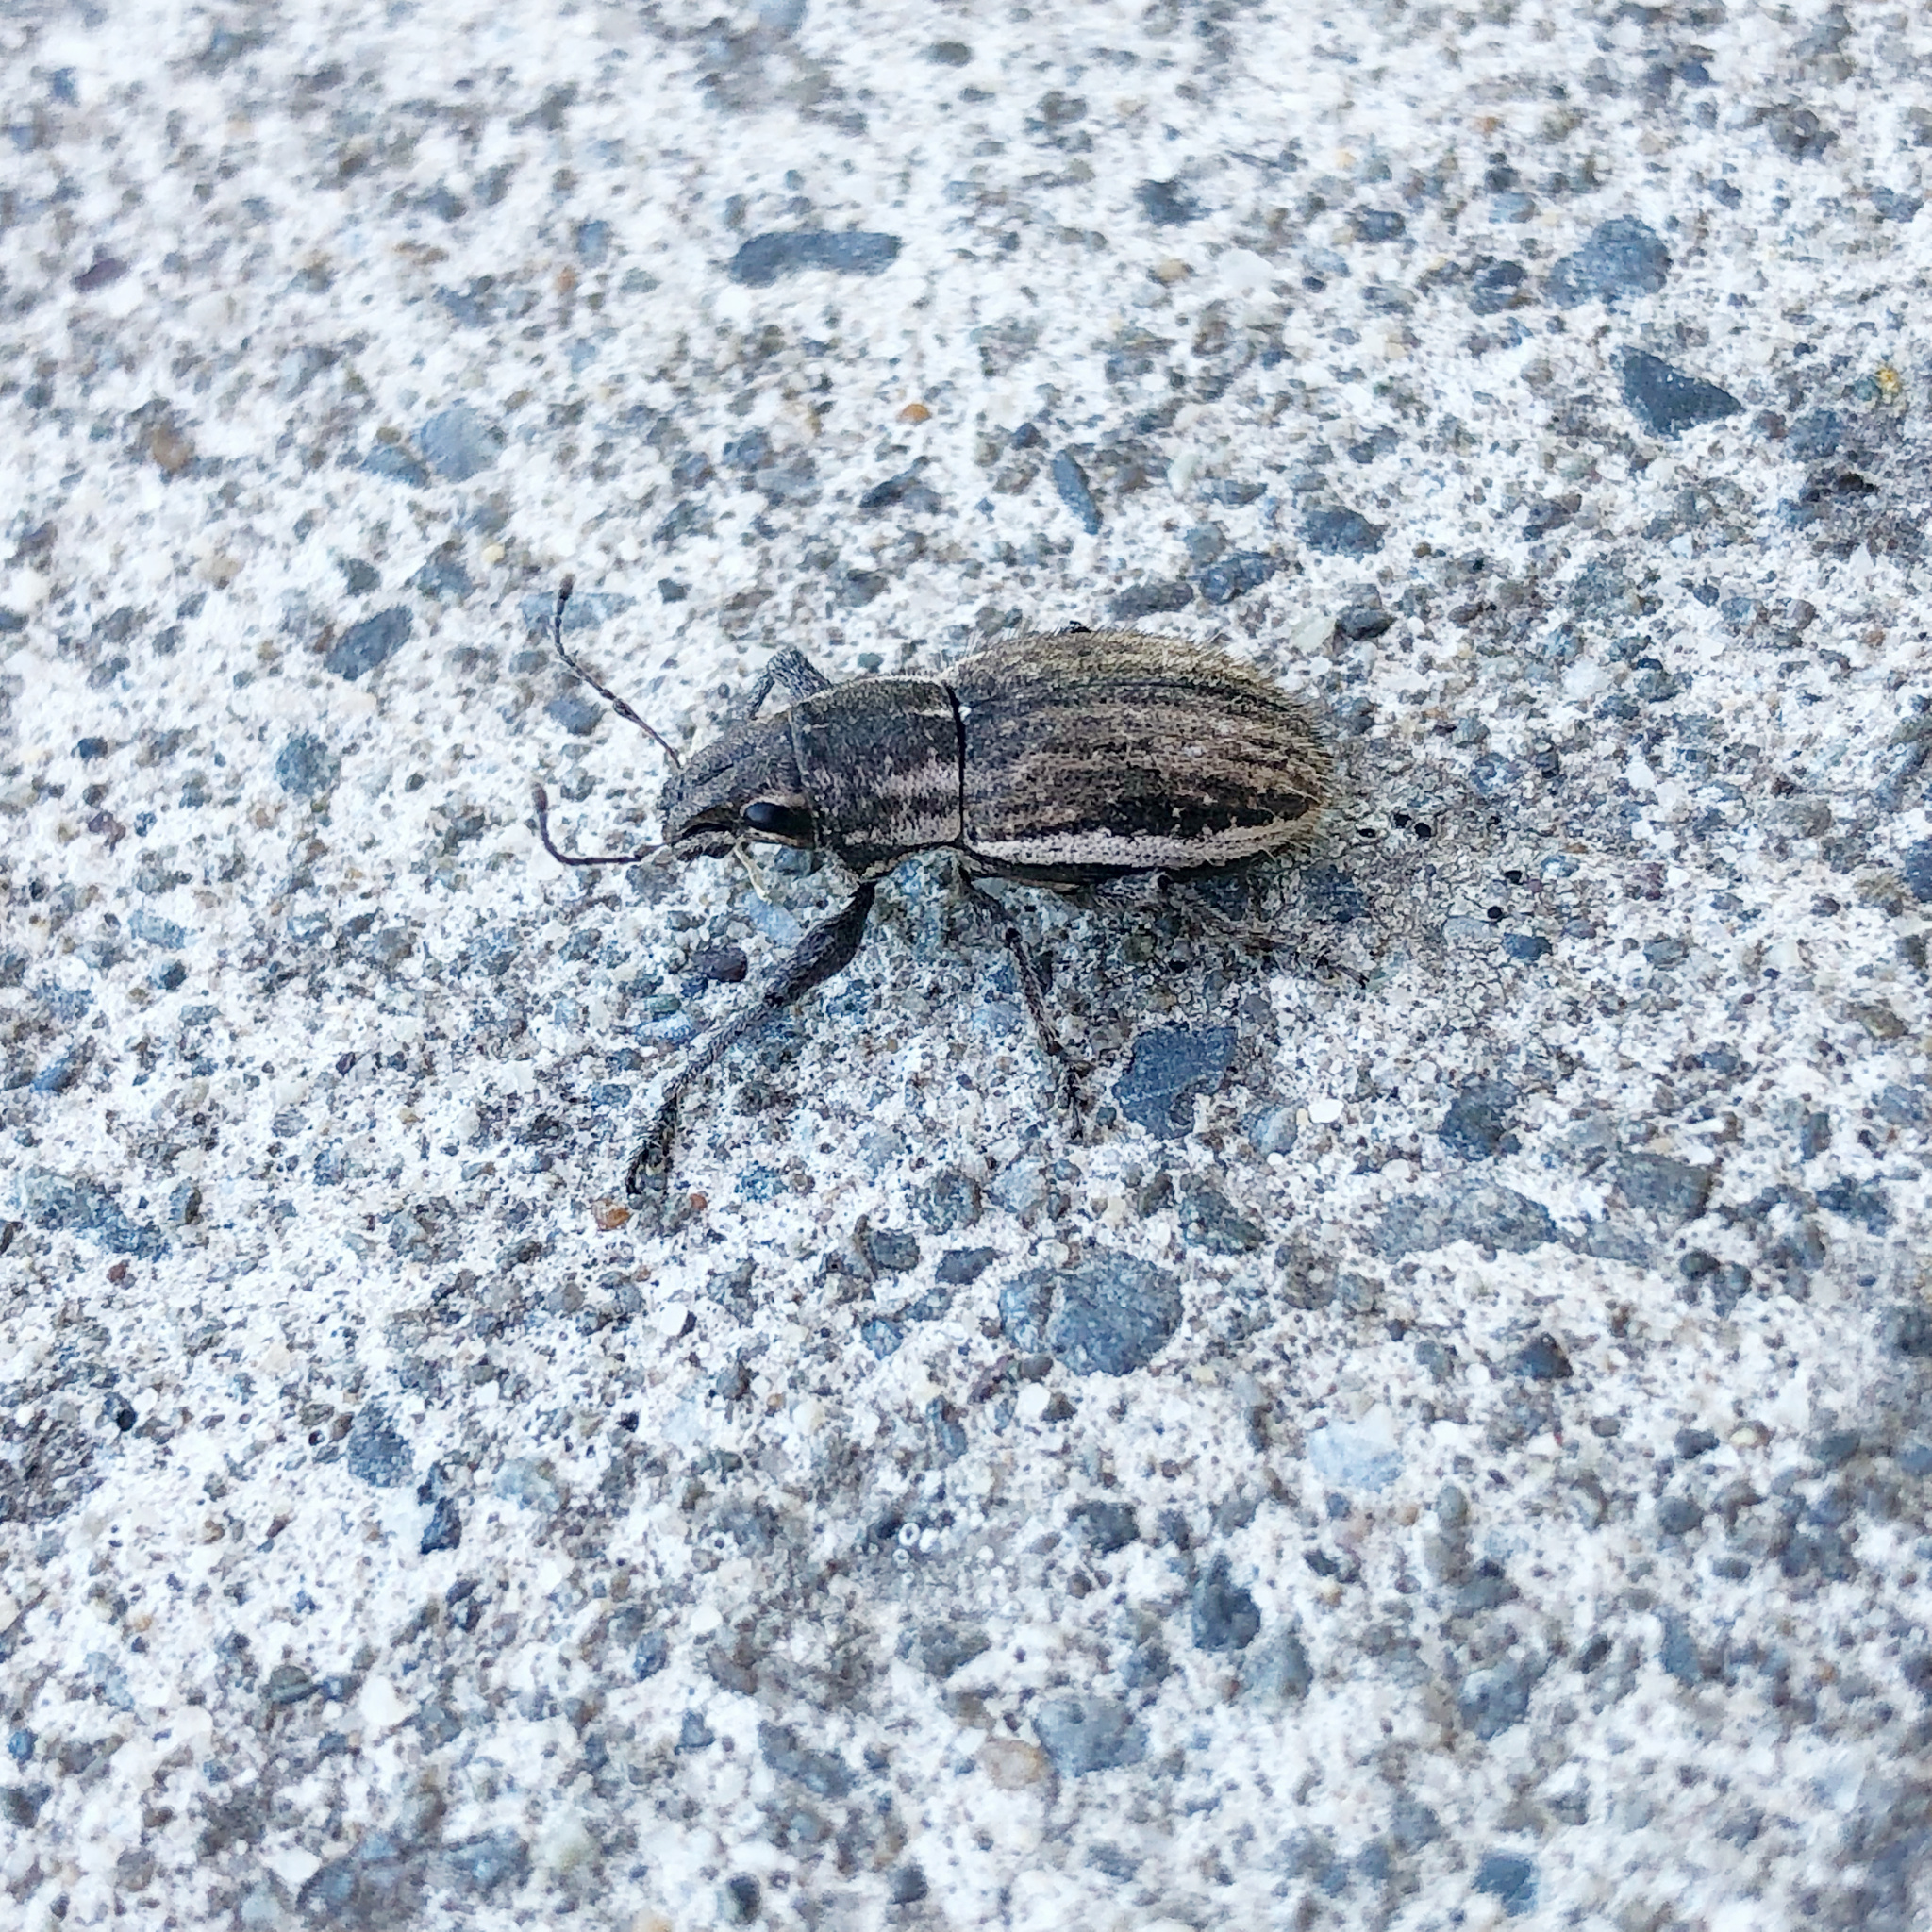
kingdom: Animalia
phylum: Arthropoda
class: Insecta
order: Coleoptera
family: Curculionidae
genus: Naupactus
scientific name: Naupactus leucoloma
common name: Whitefringed beetle
